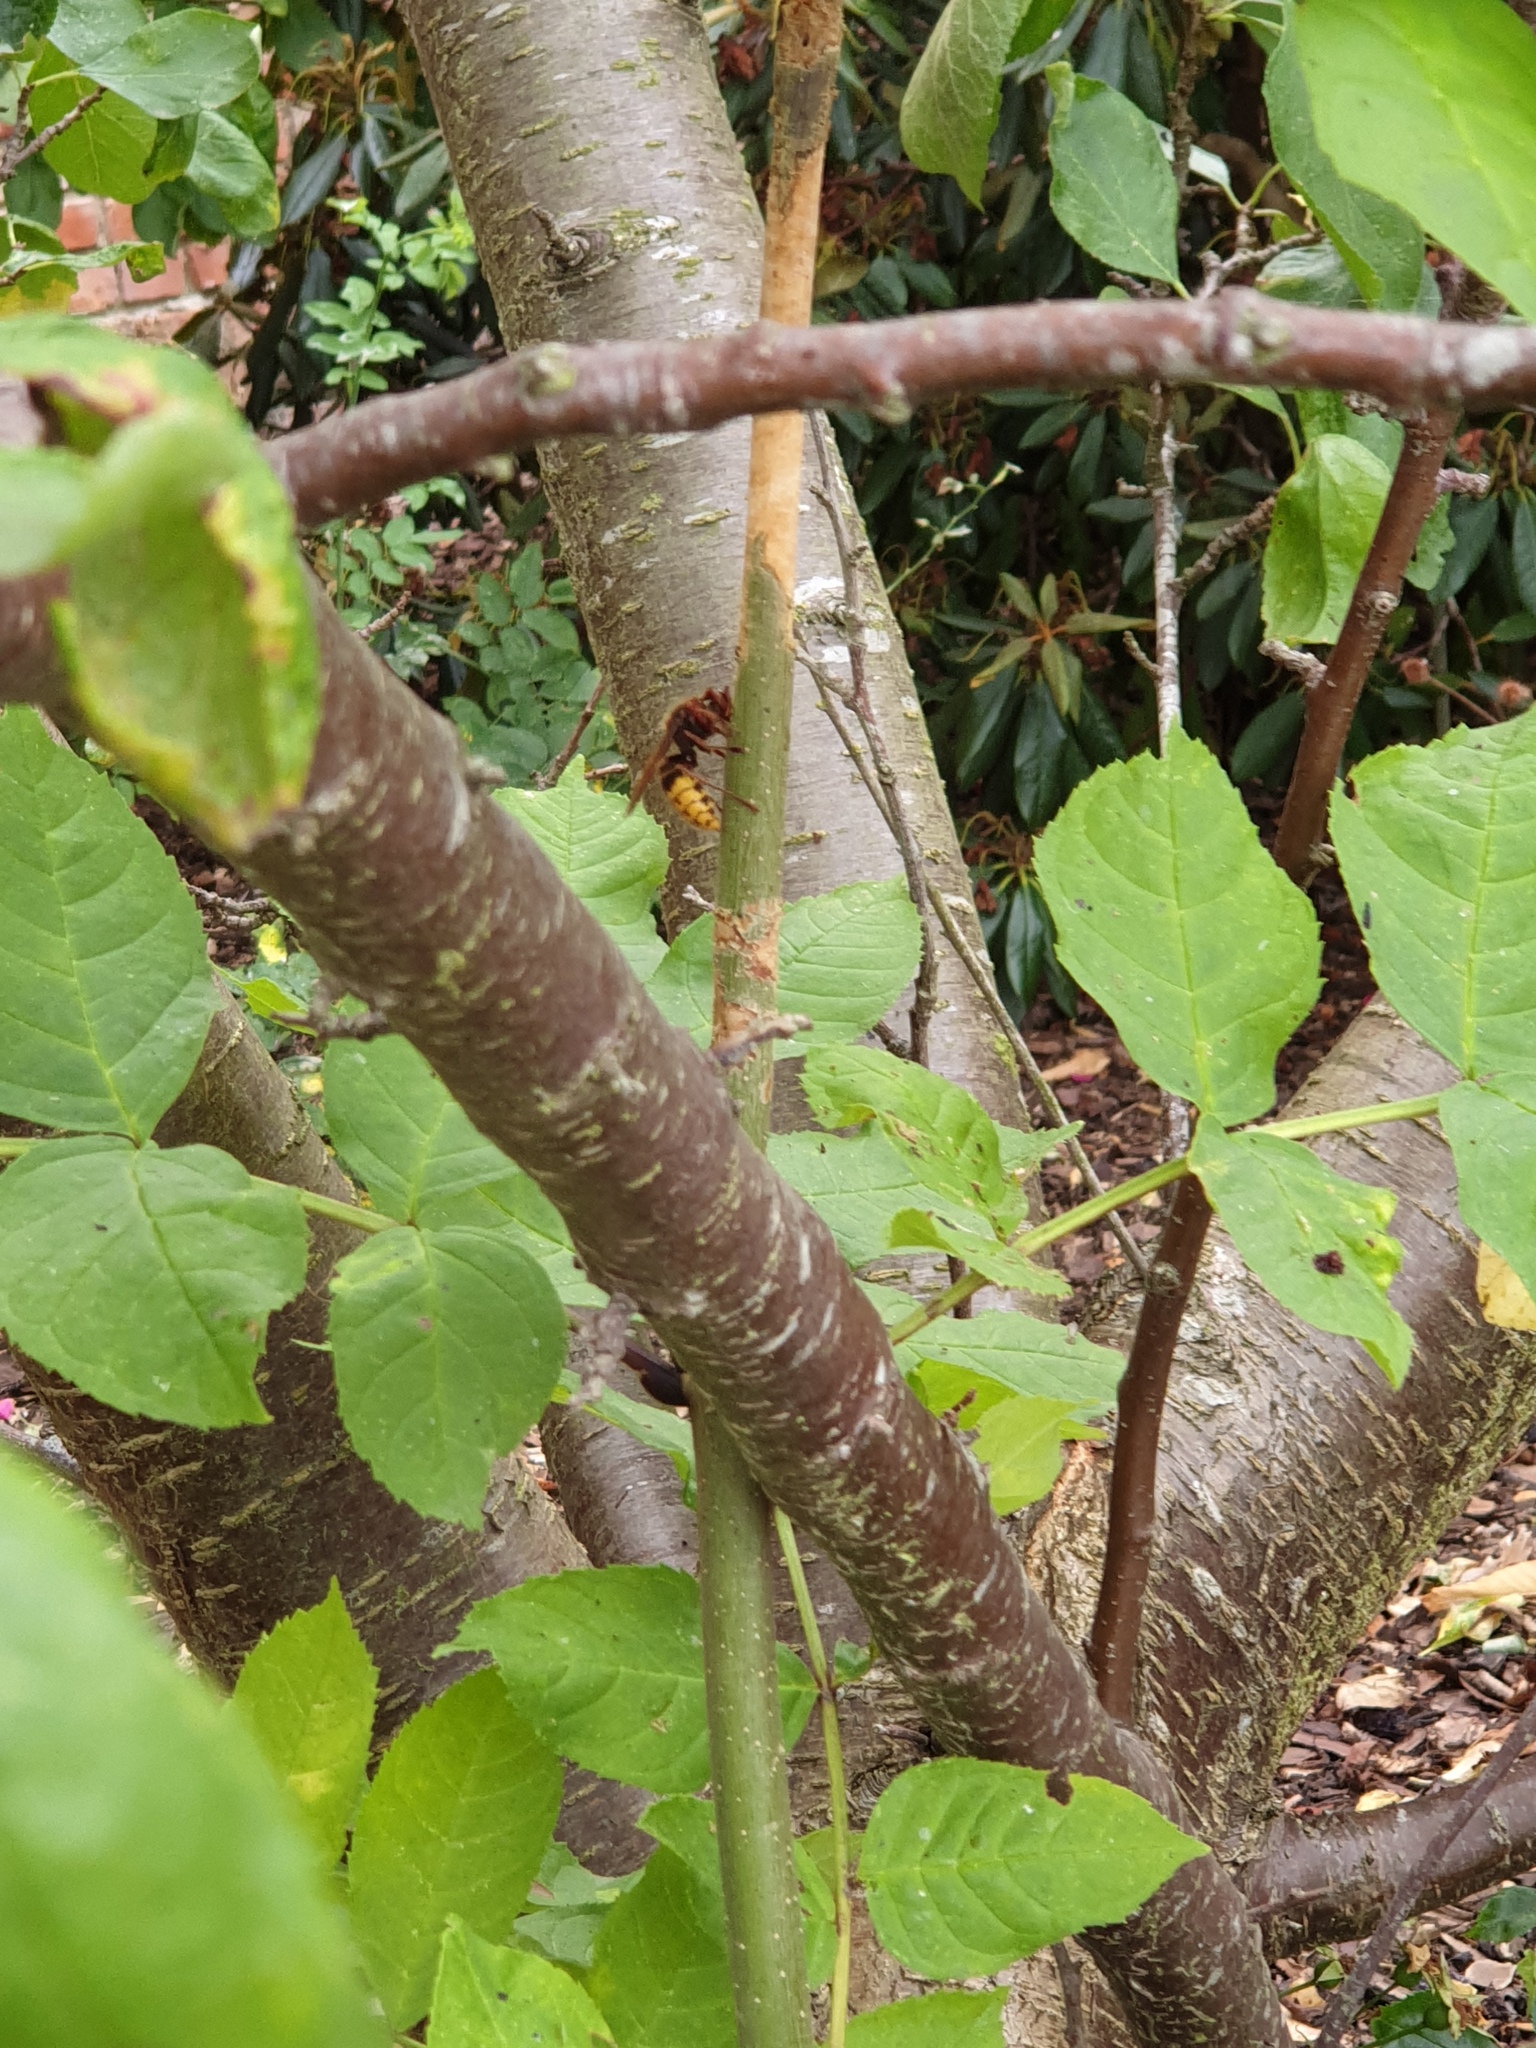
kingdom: Animalia
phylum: Arthropoda
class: Insecta
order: Hymenoptera
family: Vespidae
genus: Vespa
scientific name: Vespa crabro
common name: Hornet
